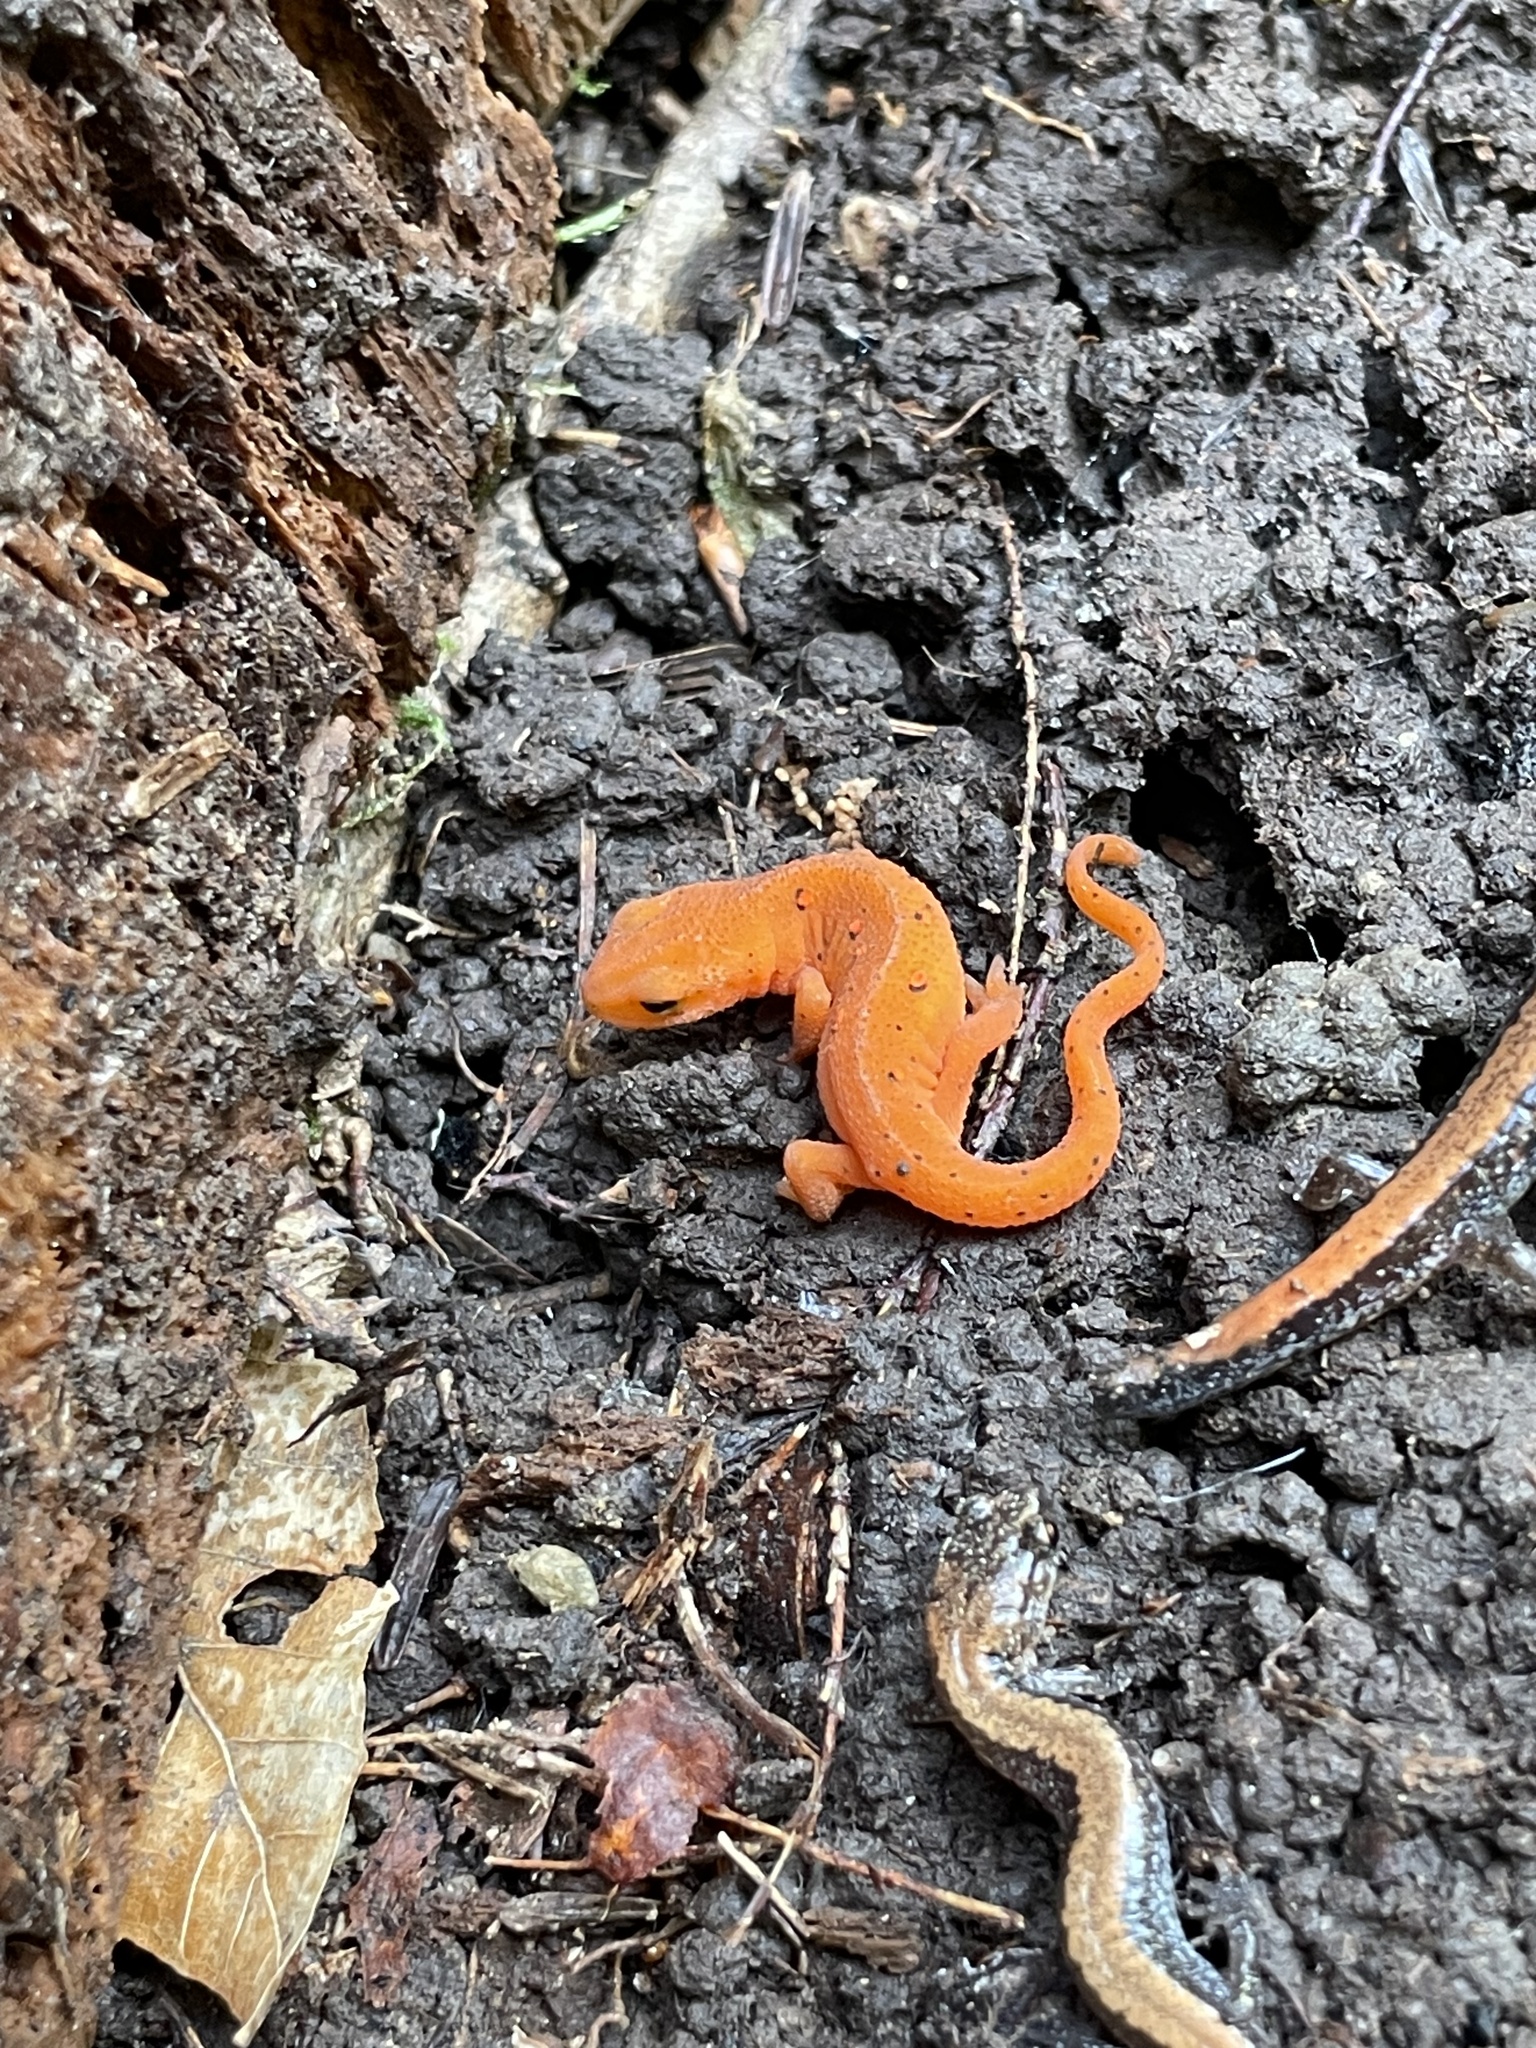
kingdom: Animalia
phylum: Chordata
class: Amphibia
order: Caudata
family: Salamandridae
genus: Notophthalmus
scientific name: Notophthalmus viridescens
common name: Eastern newt
